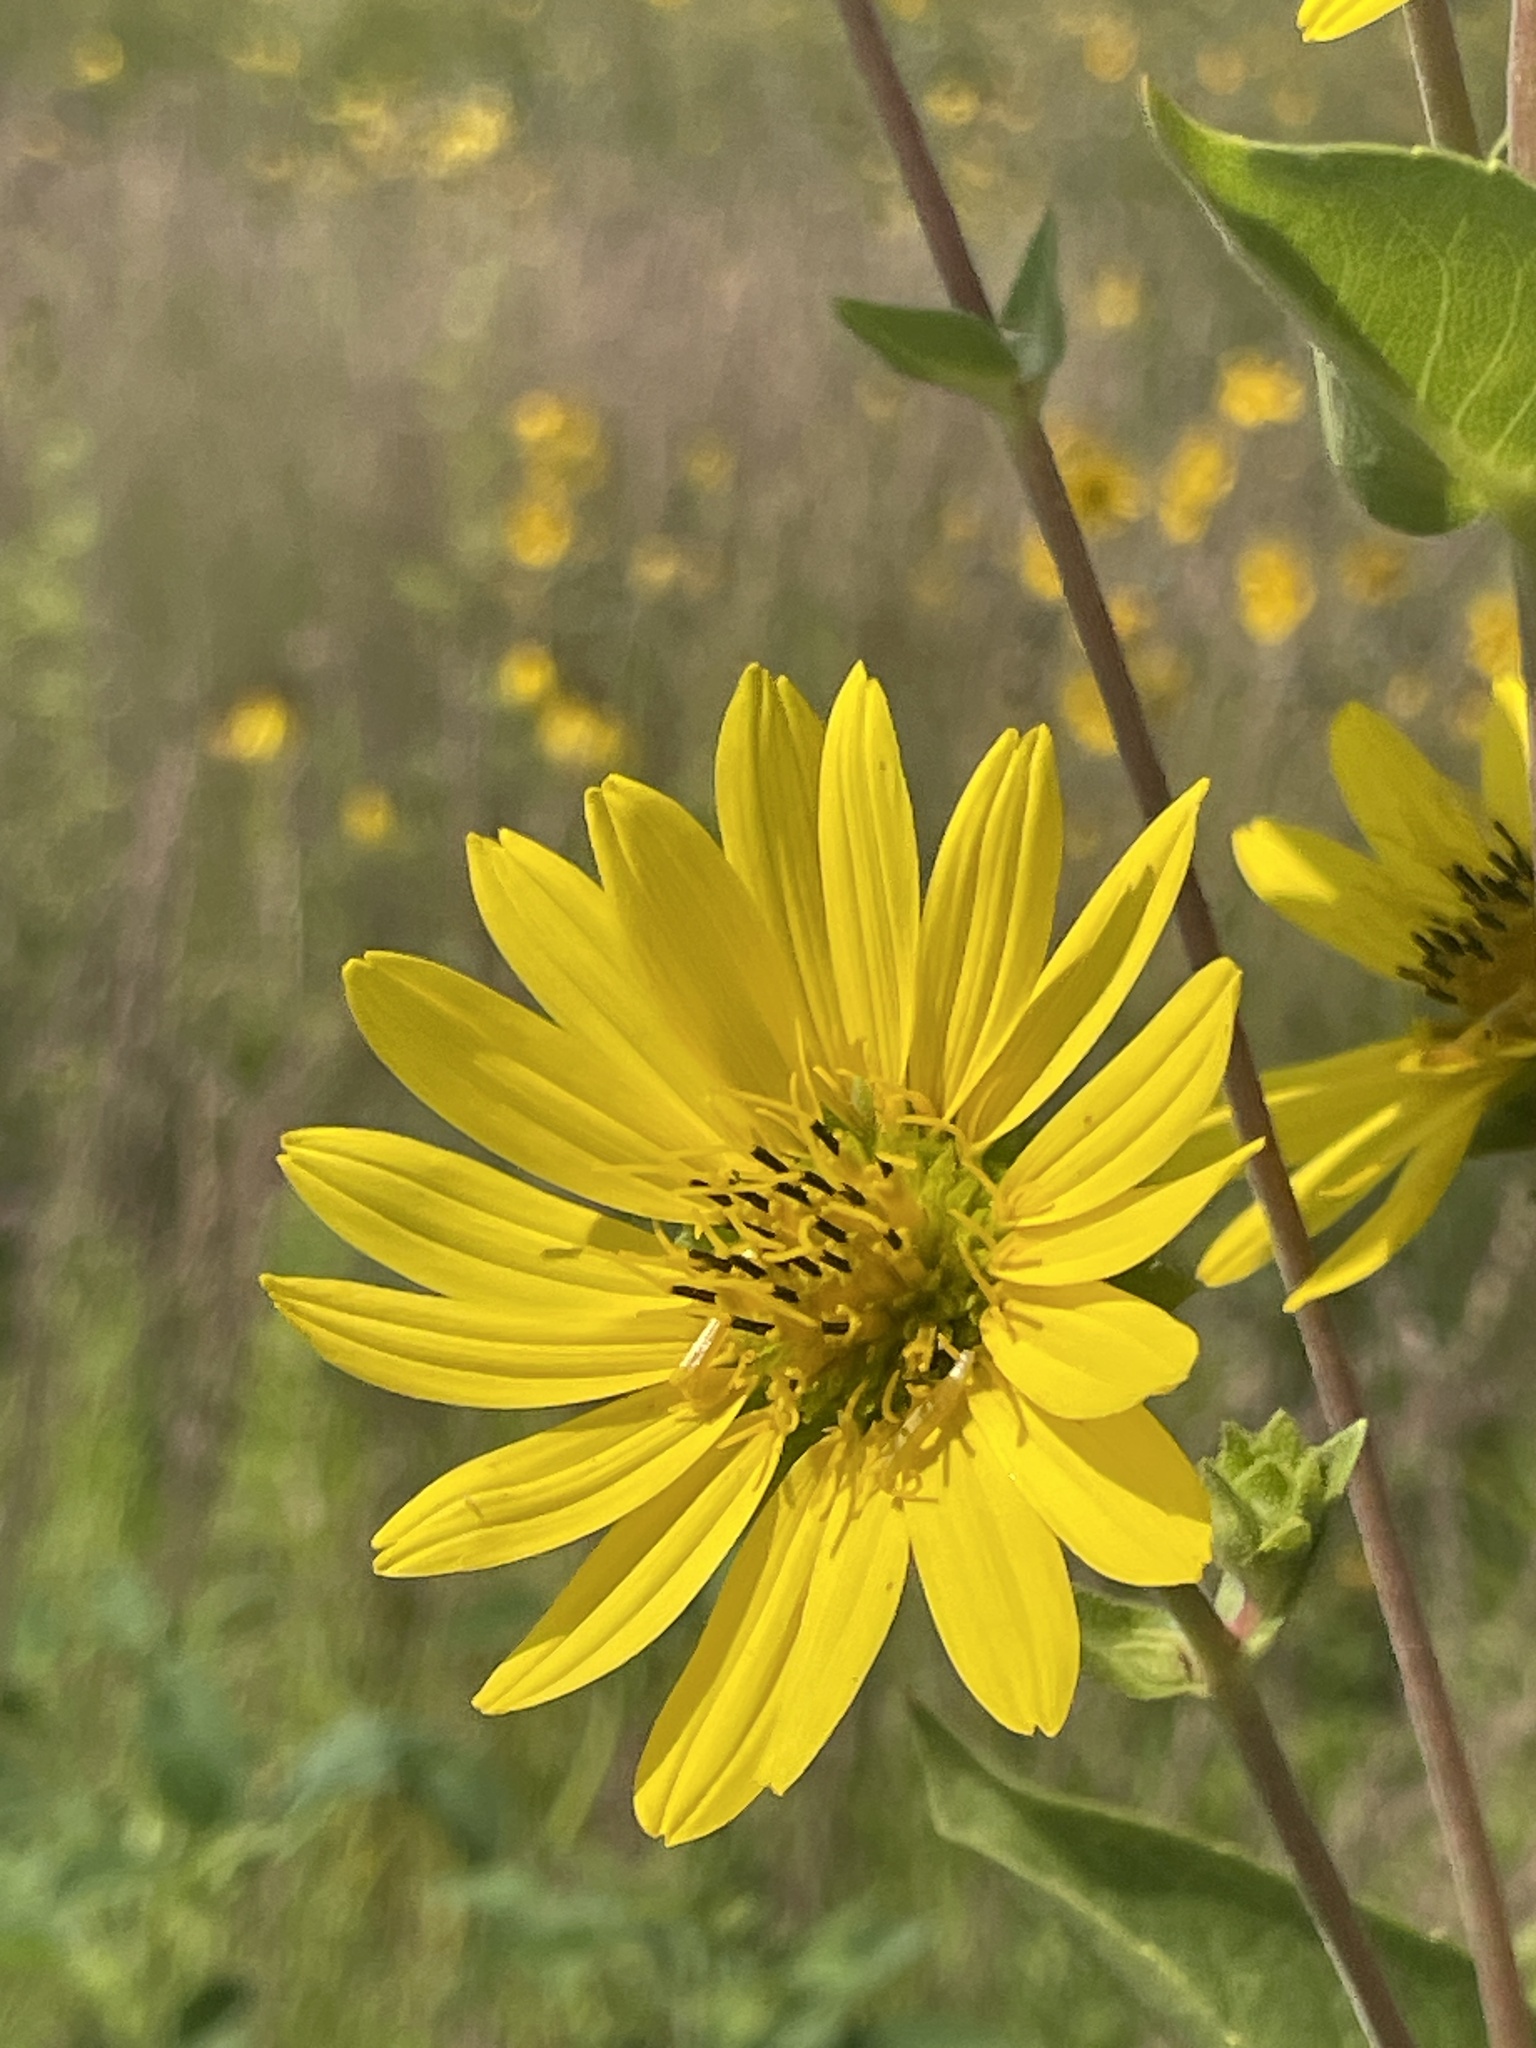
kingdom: Plantae
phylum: Tracheophyta
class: Magnoliopsida
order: Asterales
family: Asteraceae
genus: Silphium
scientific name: Silphium integrifolium
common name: Whole-leaf rosinweed
